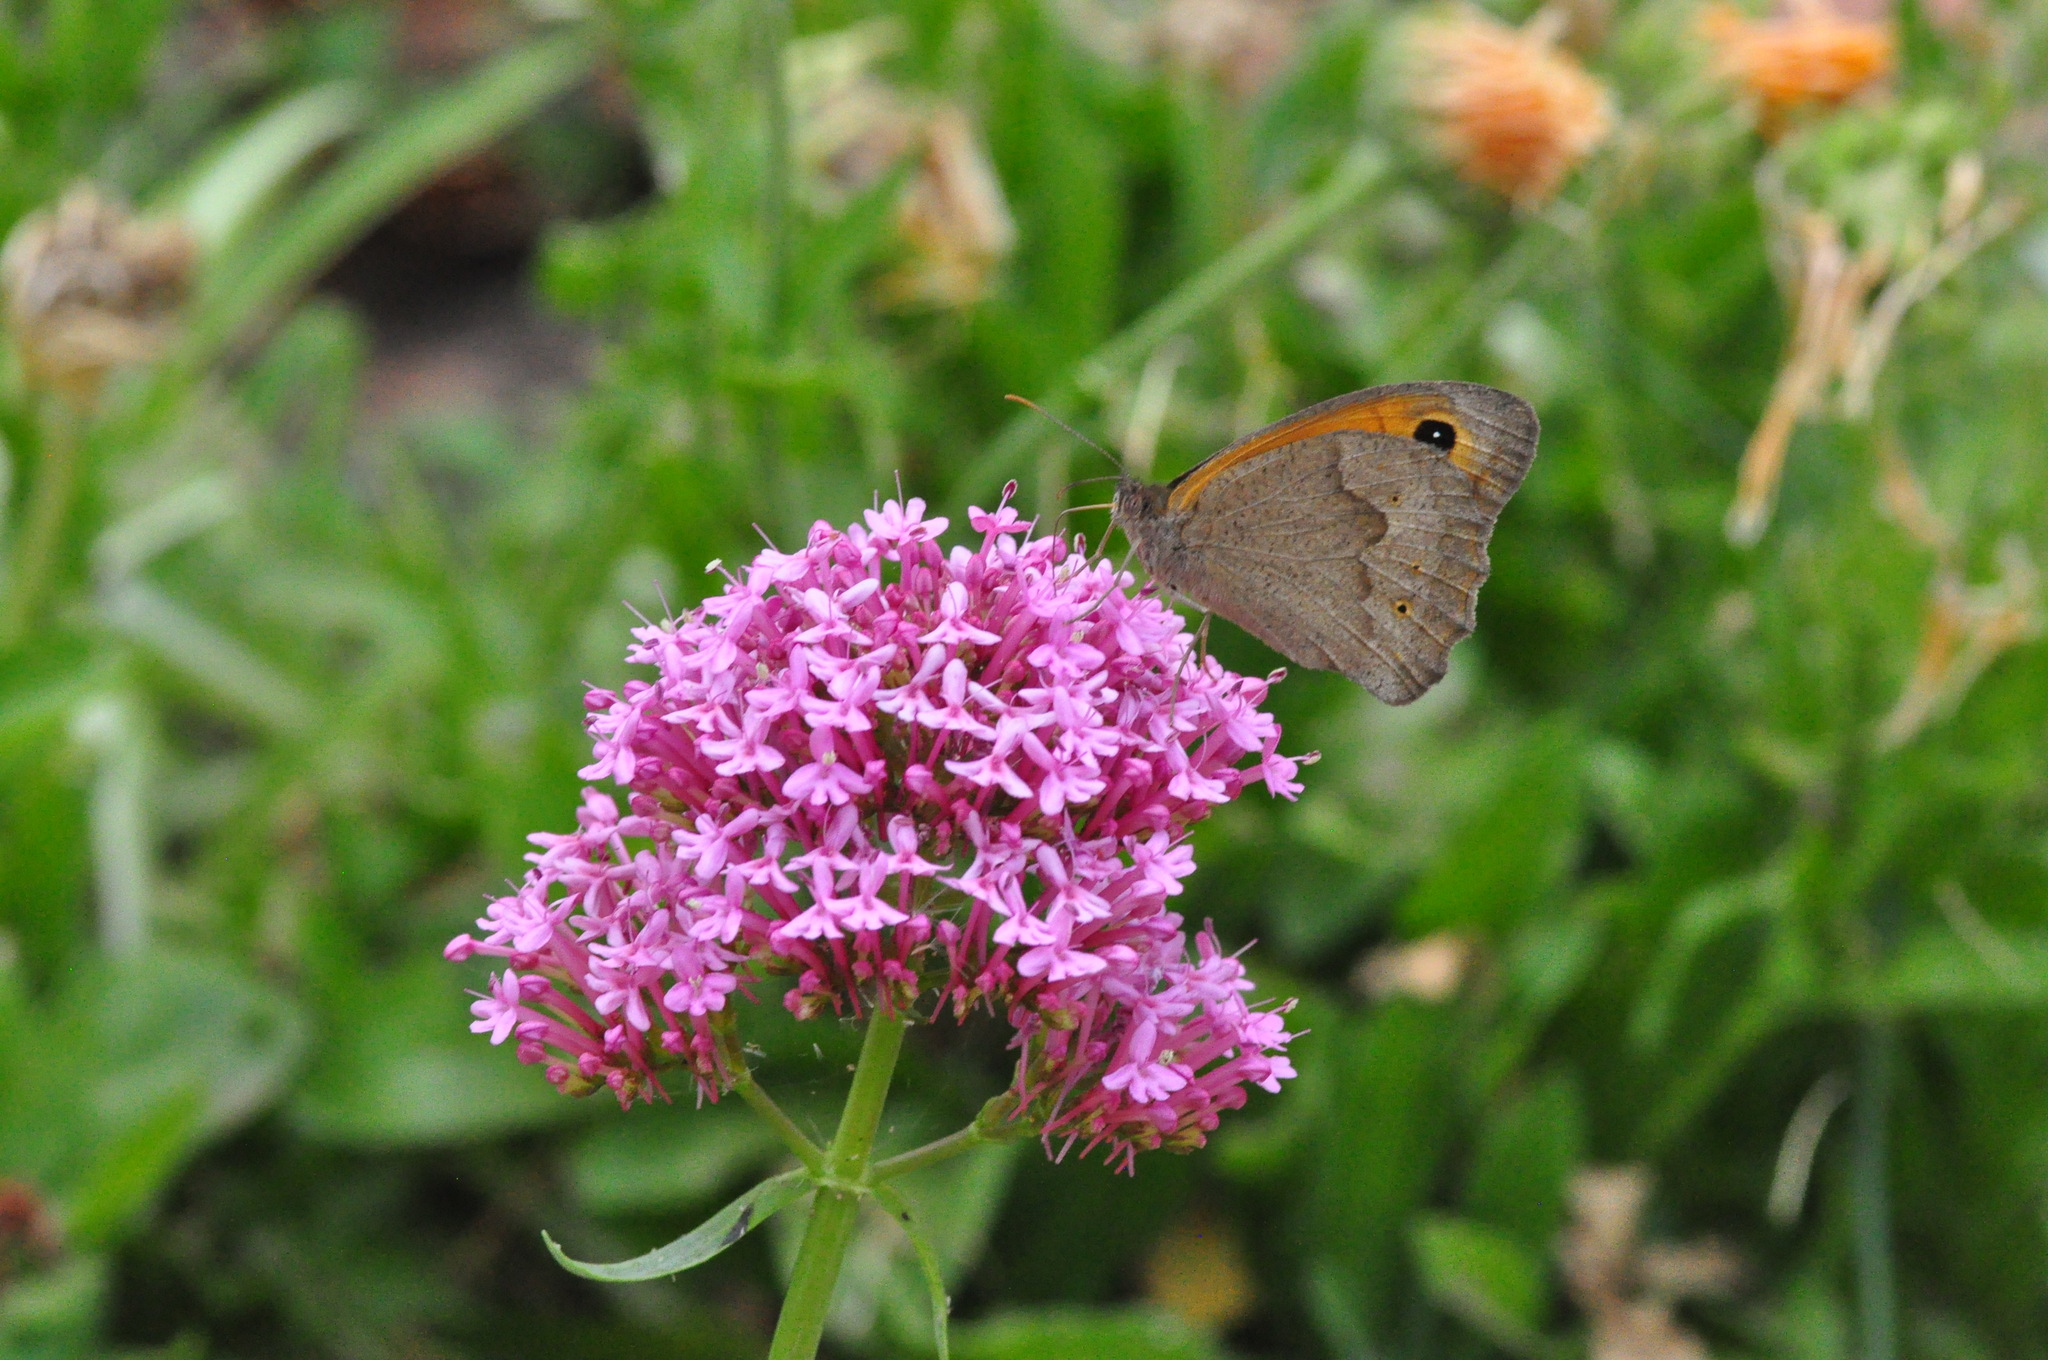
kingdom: Animalia
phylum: Arthropoda
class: Insecta
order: Lepidoptera
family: Nymphalidae
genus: Maniola
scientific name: Maniola jurtina
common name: Meadow brown
